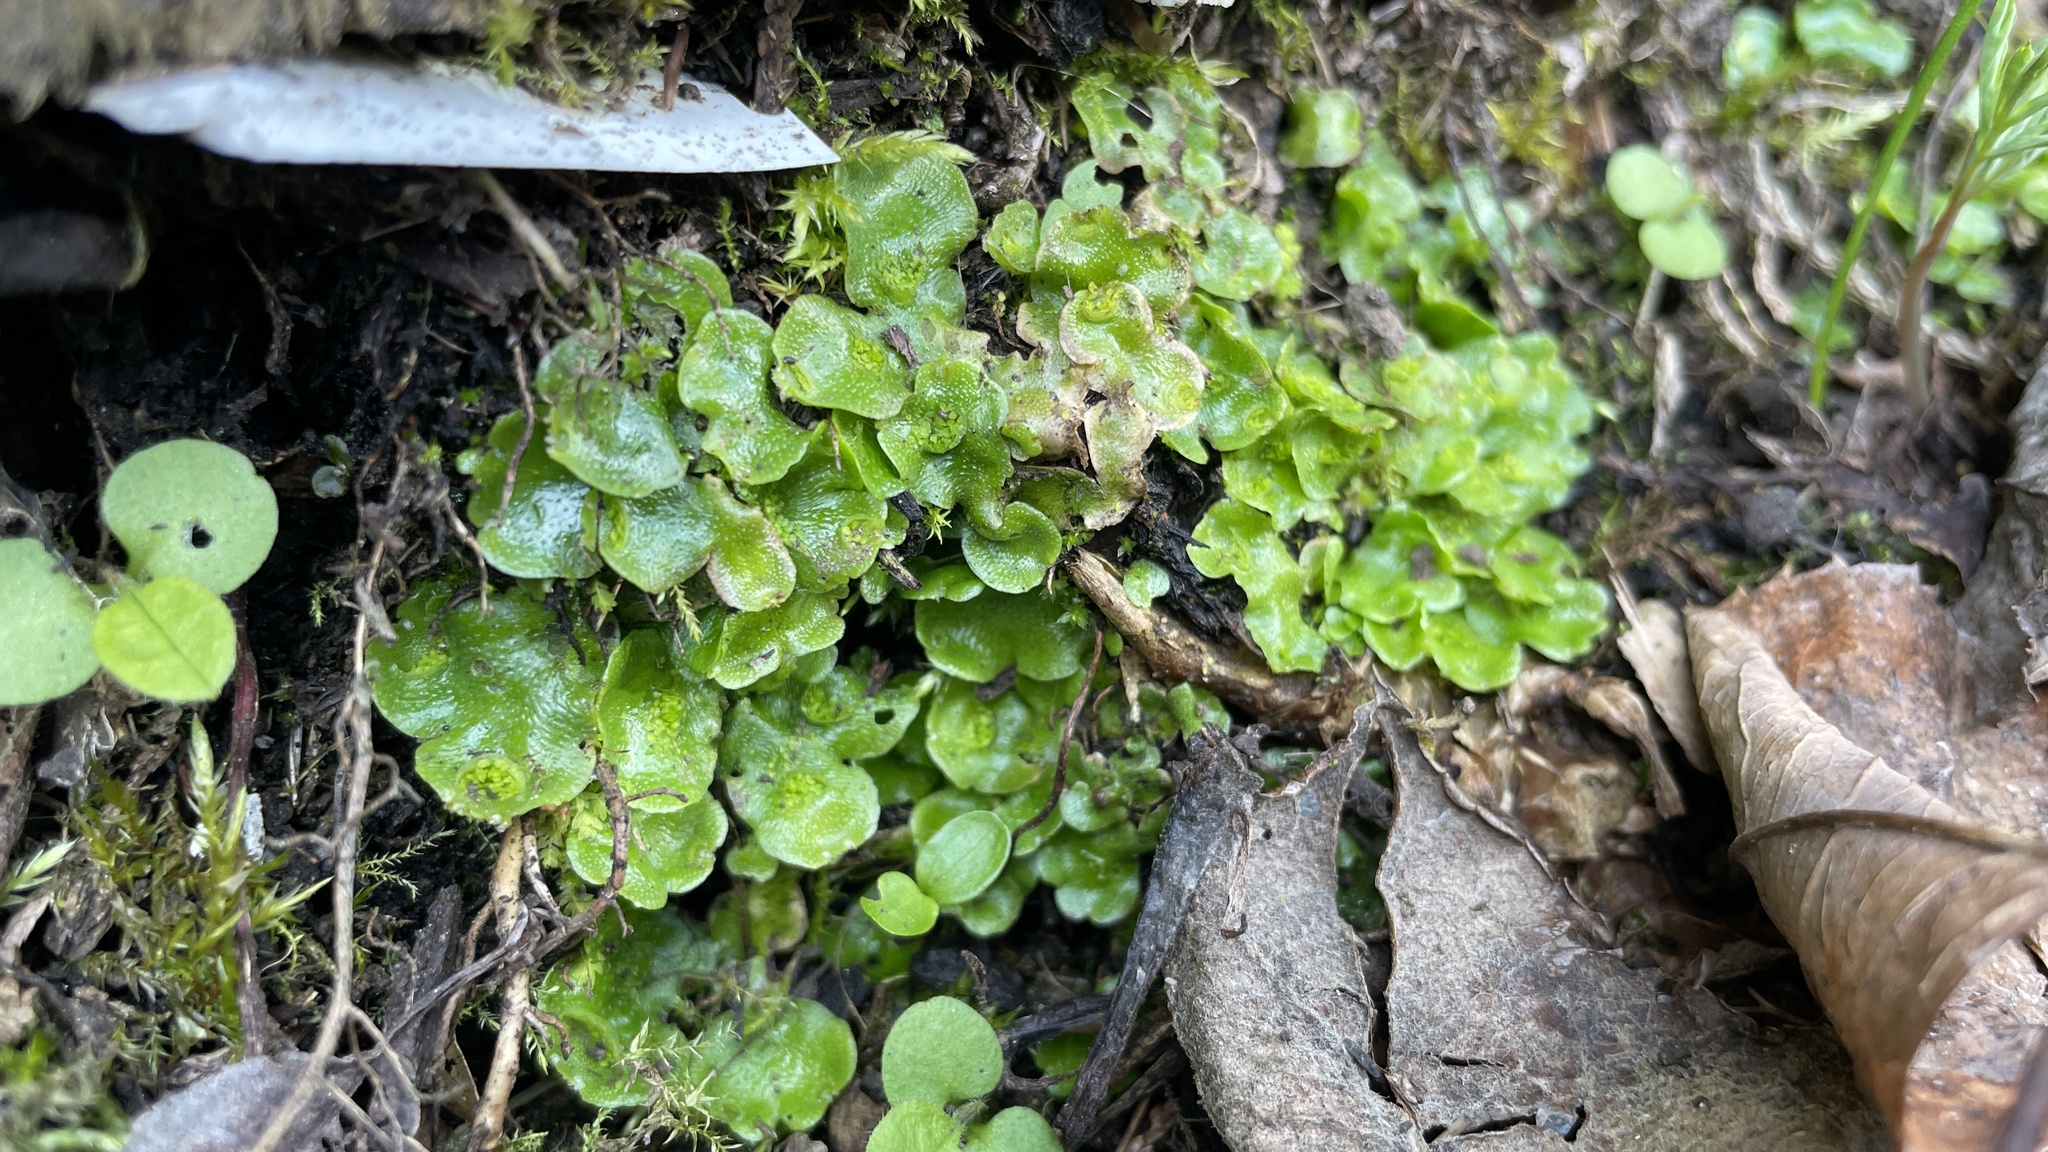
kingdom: Plantae
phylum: Marchantiophyta
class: Marchantiopsida
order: Lunulariales
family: Lunulariaceae
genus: Lunularia
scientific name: Lunularia cruciata
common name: Crescent-cup liverwort
